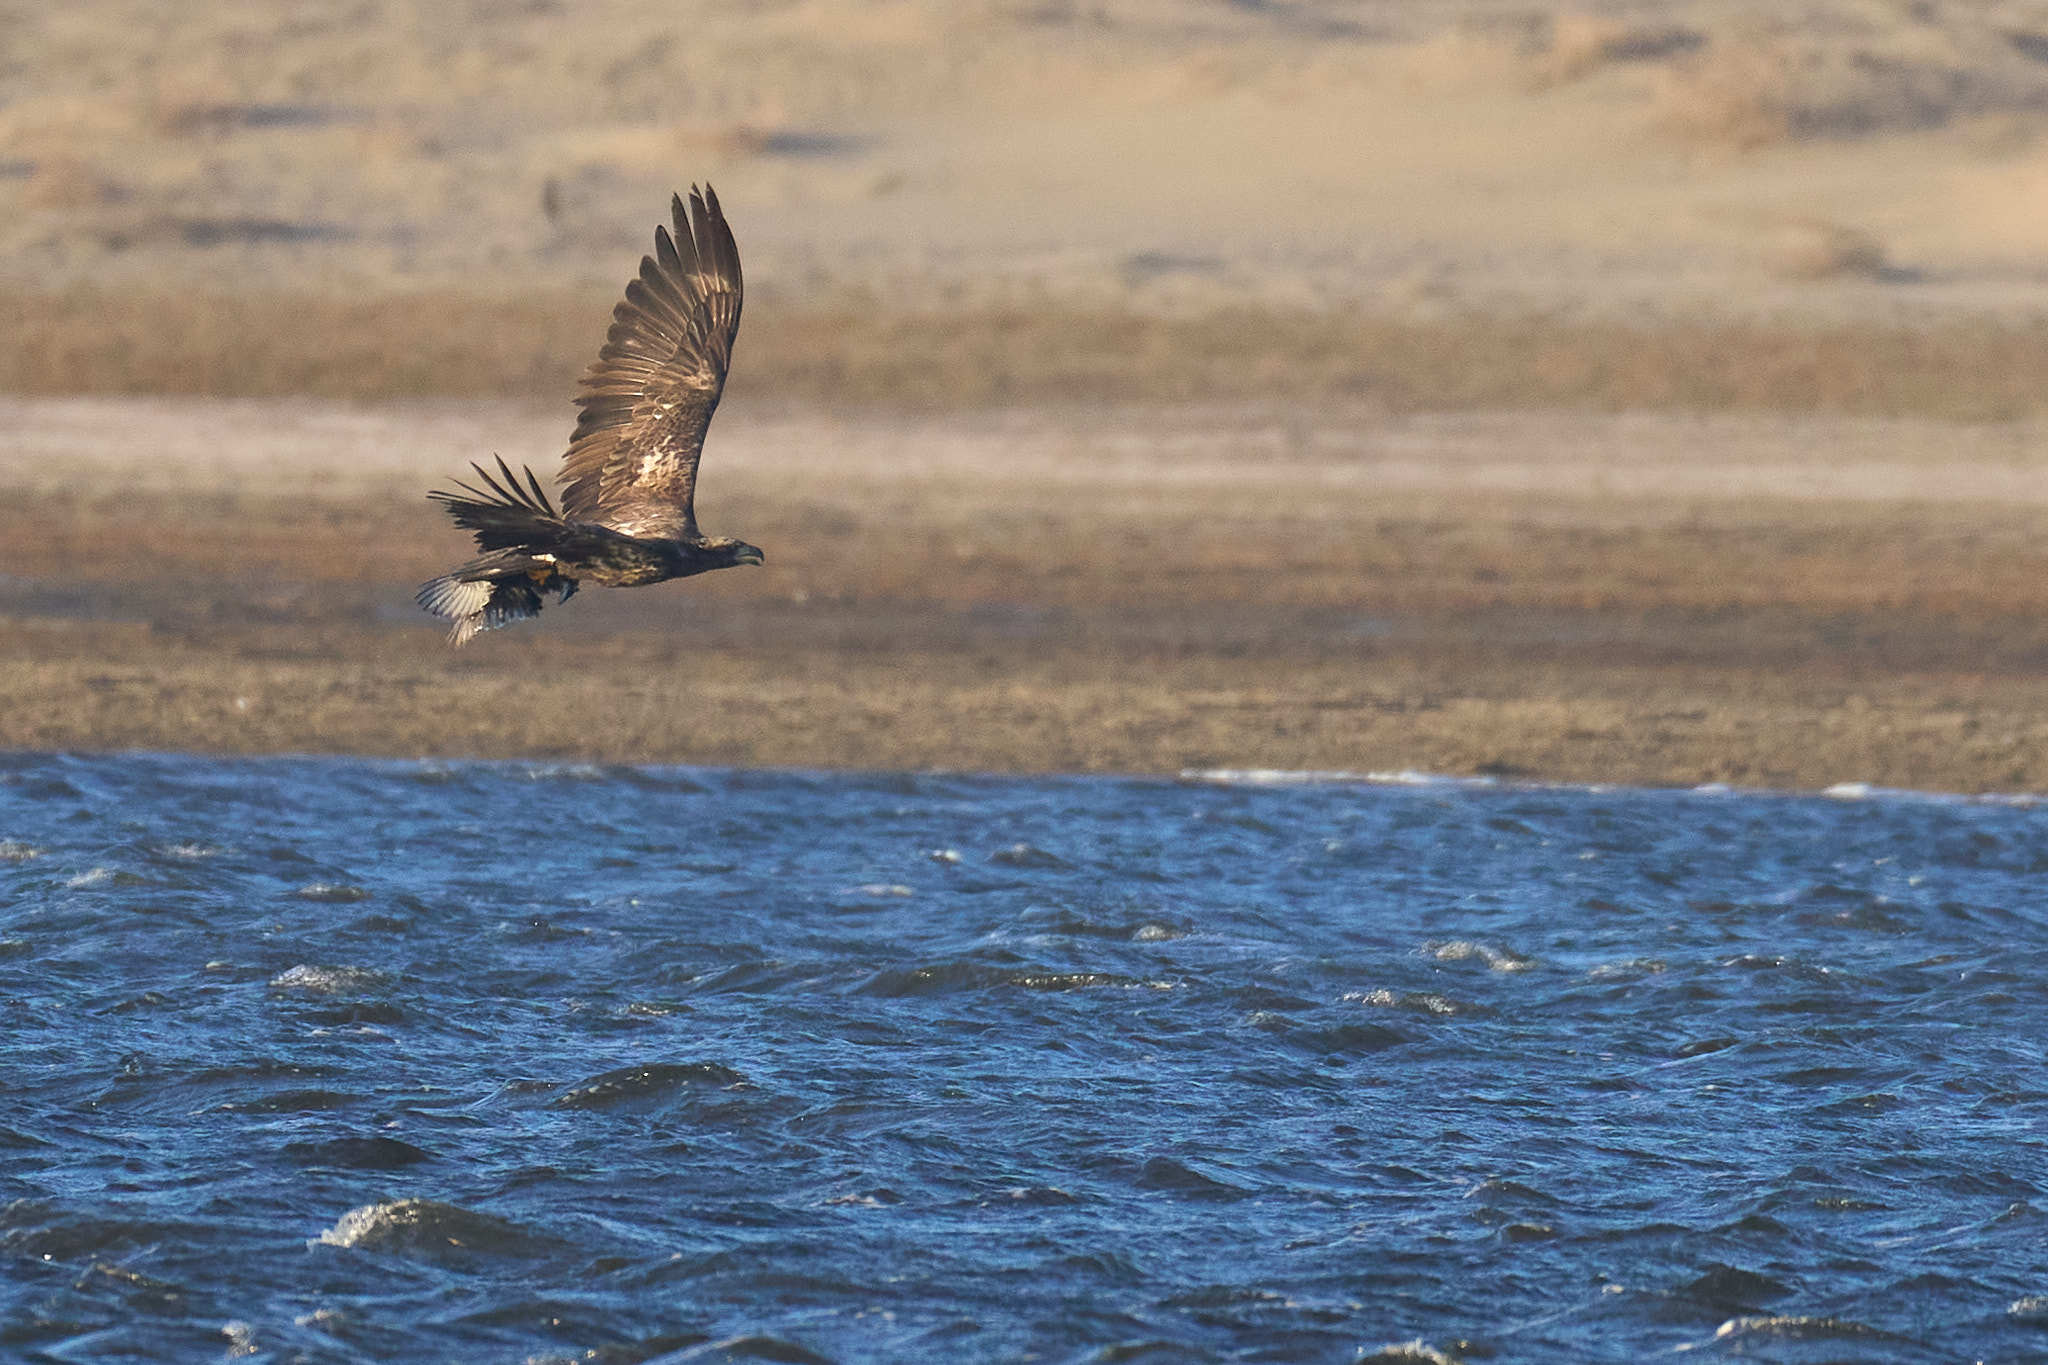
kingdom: Animalia
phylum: Chordata
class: Aves
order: Accipitriformes
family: Accipitridae
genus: Haliaeetus
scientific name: Haliaeetus leucocephalus
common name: Bald eagle
